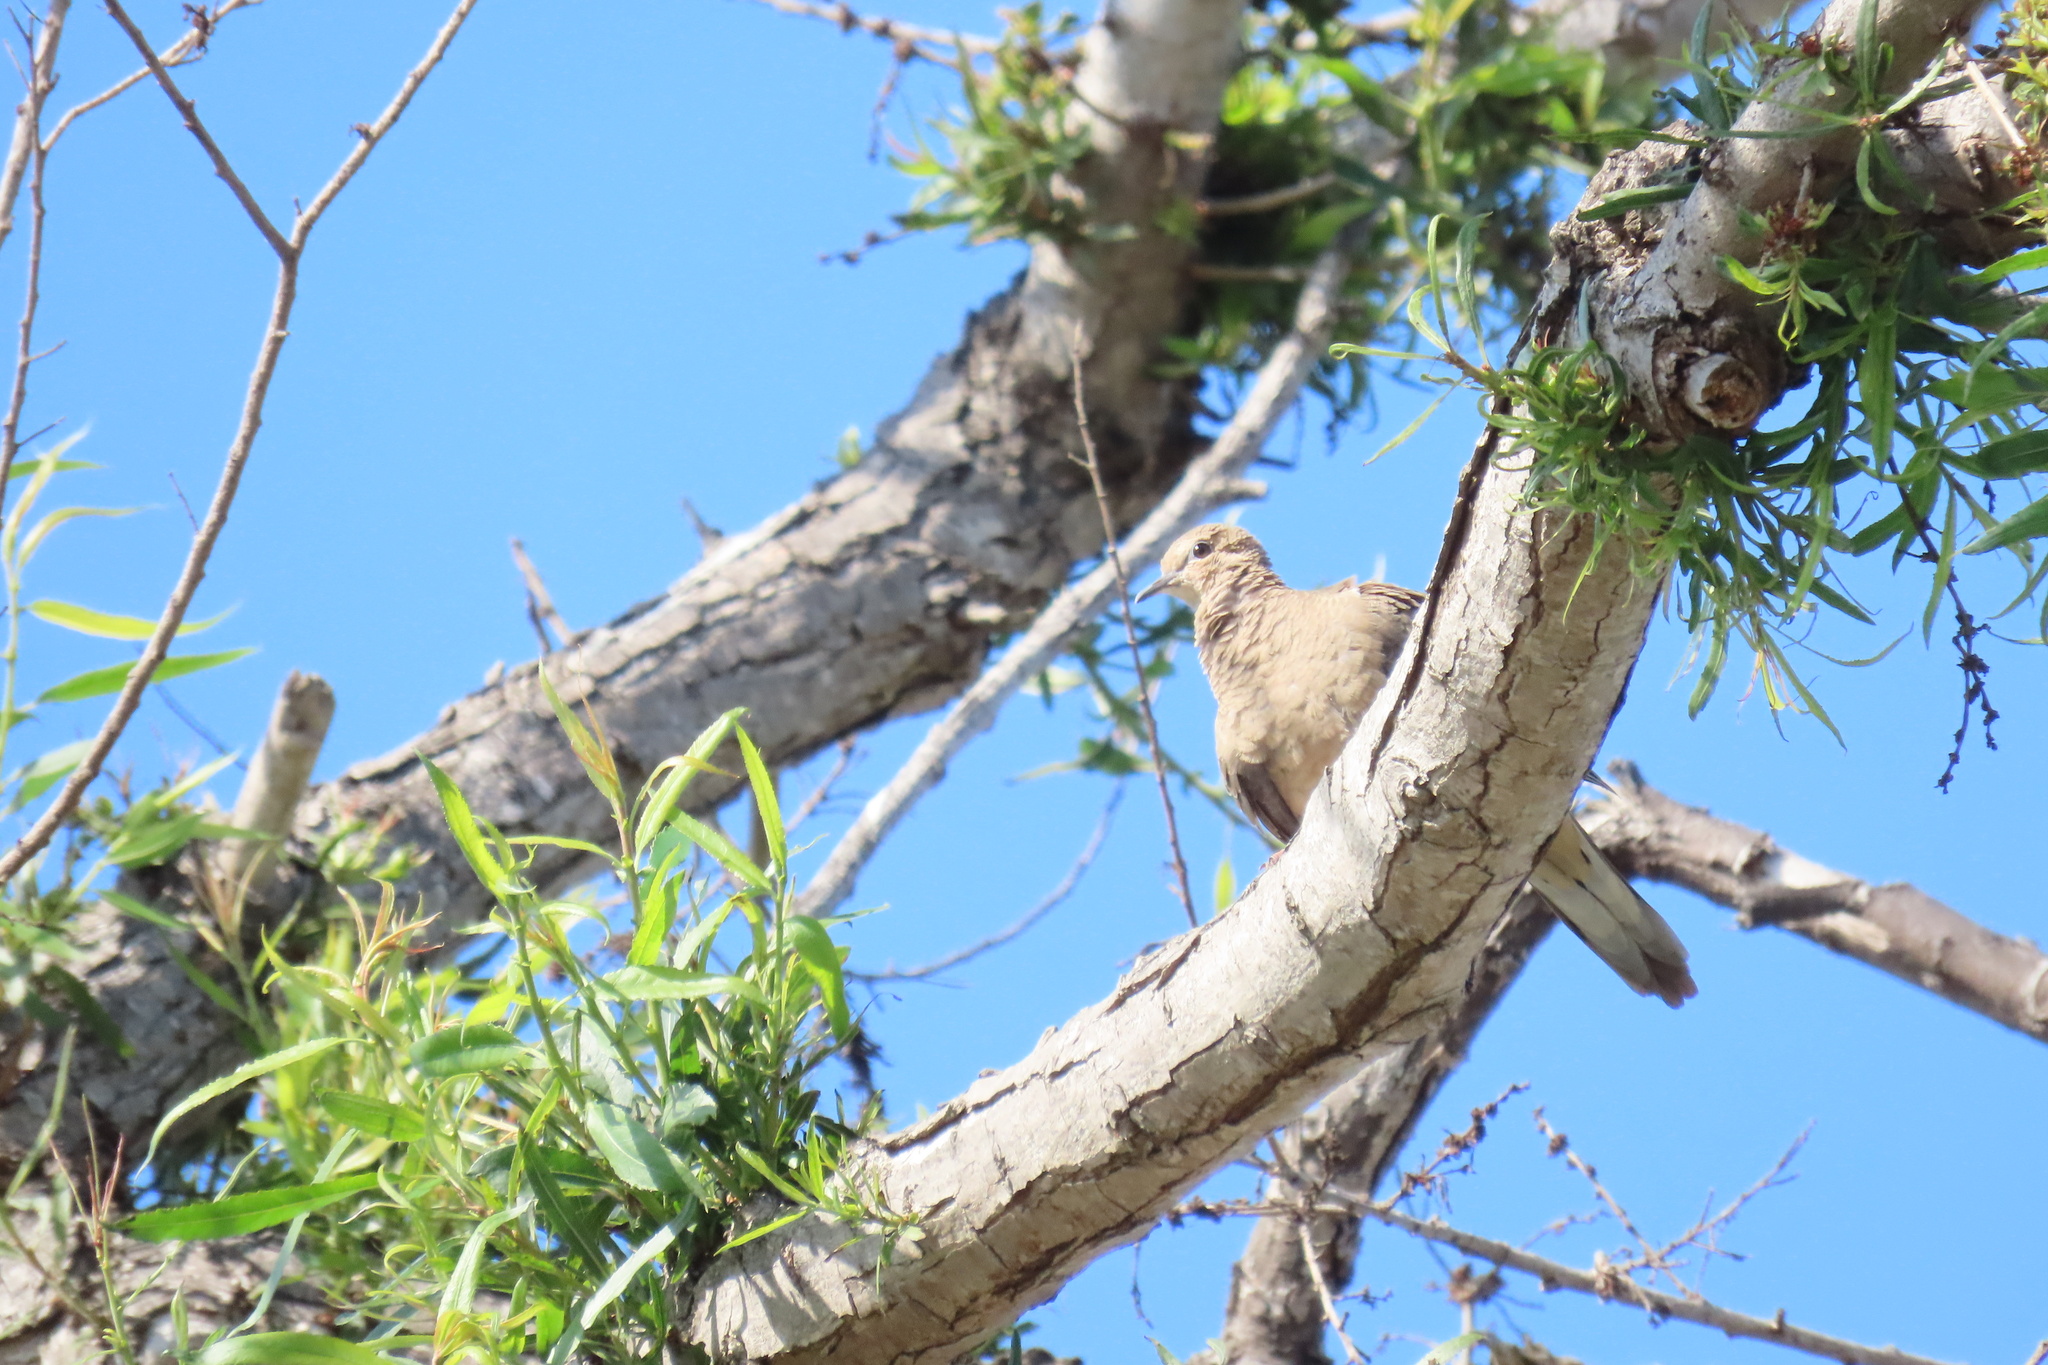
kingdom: Animalia
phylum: Chordata
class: Aves
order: Columbiformes
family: Columbidae
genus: Zenaida
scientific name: Zenaida macroura
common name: Mourning dove
